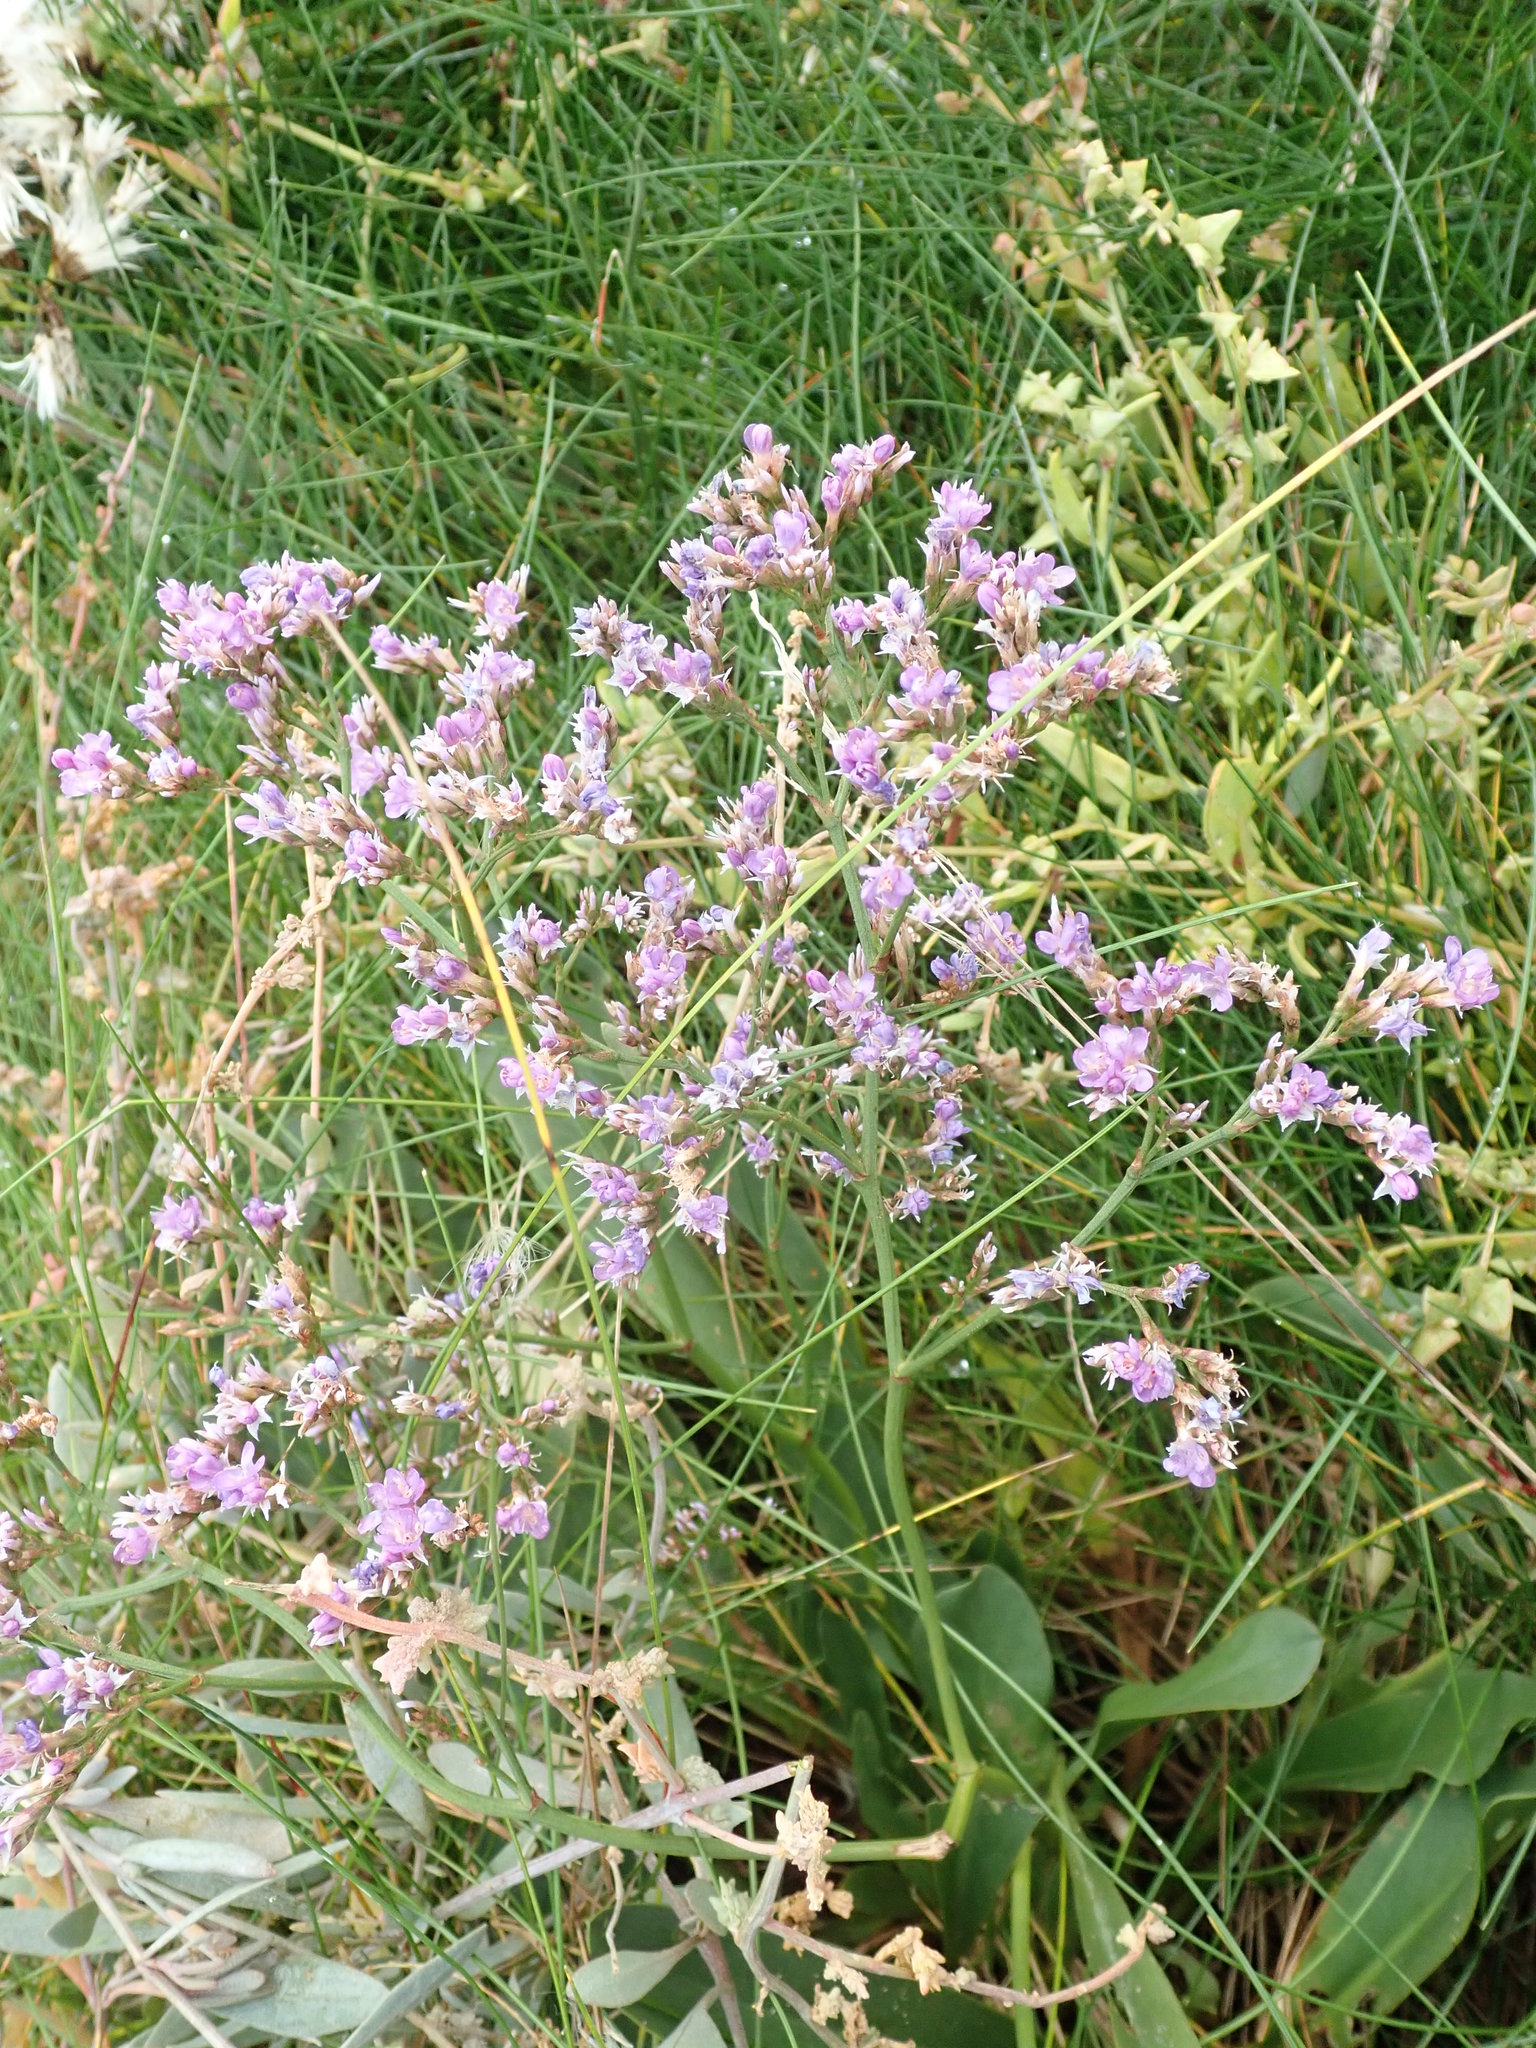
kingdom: Plantae
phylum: Tracheophyta
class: Magnoliopsida
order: Caryophyllales
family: Plumbaginaceae
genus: Limonium
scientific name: Limonium vulgare
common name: Common sea-lavender
